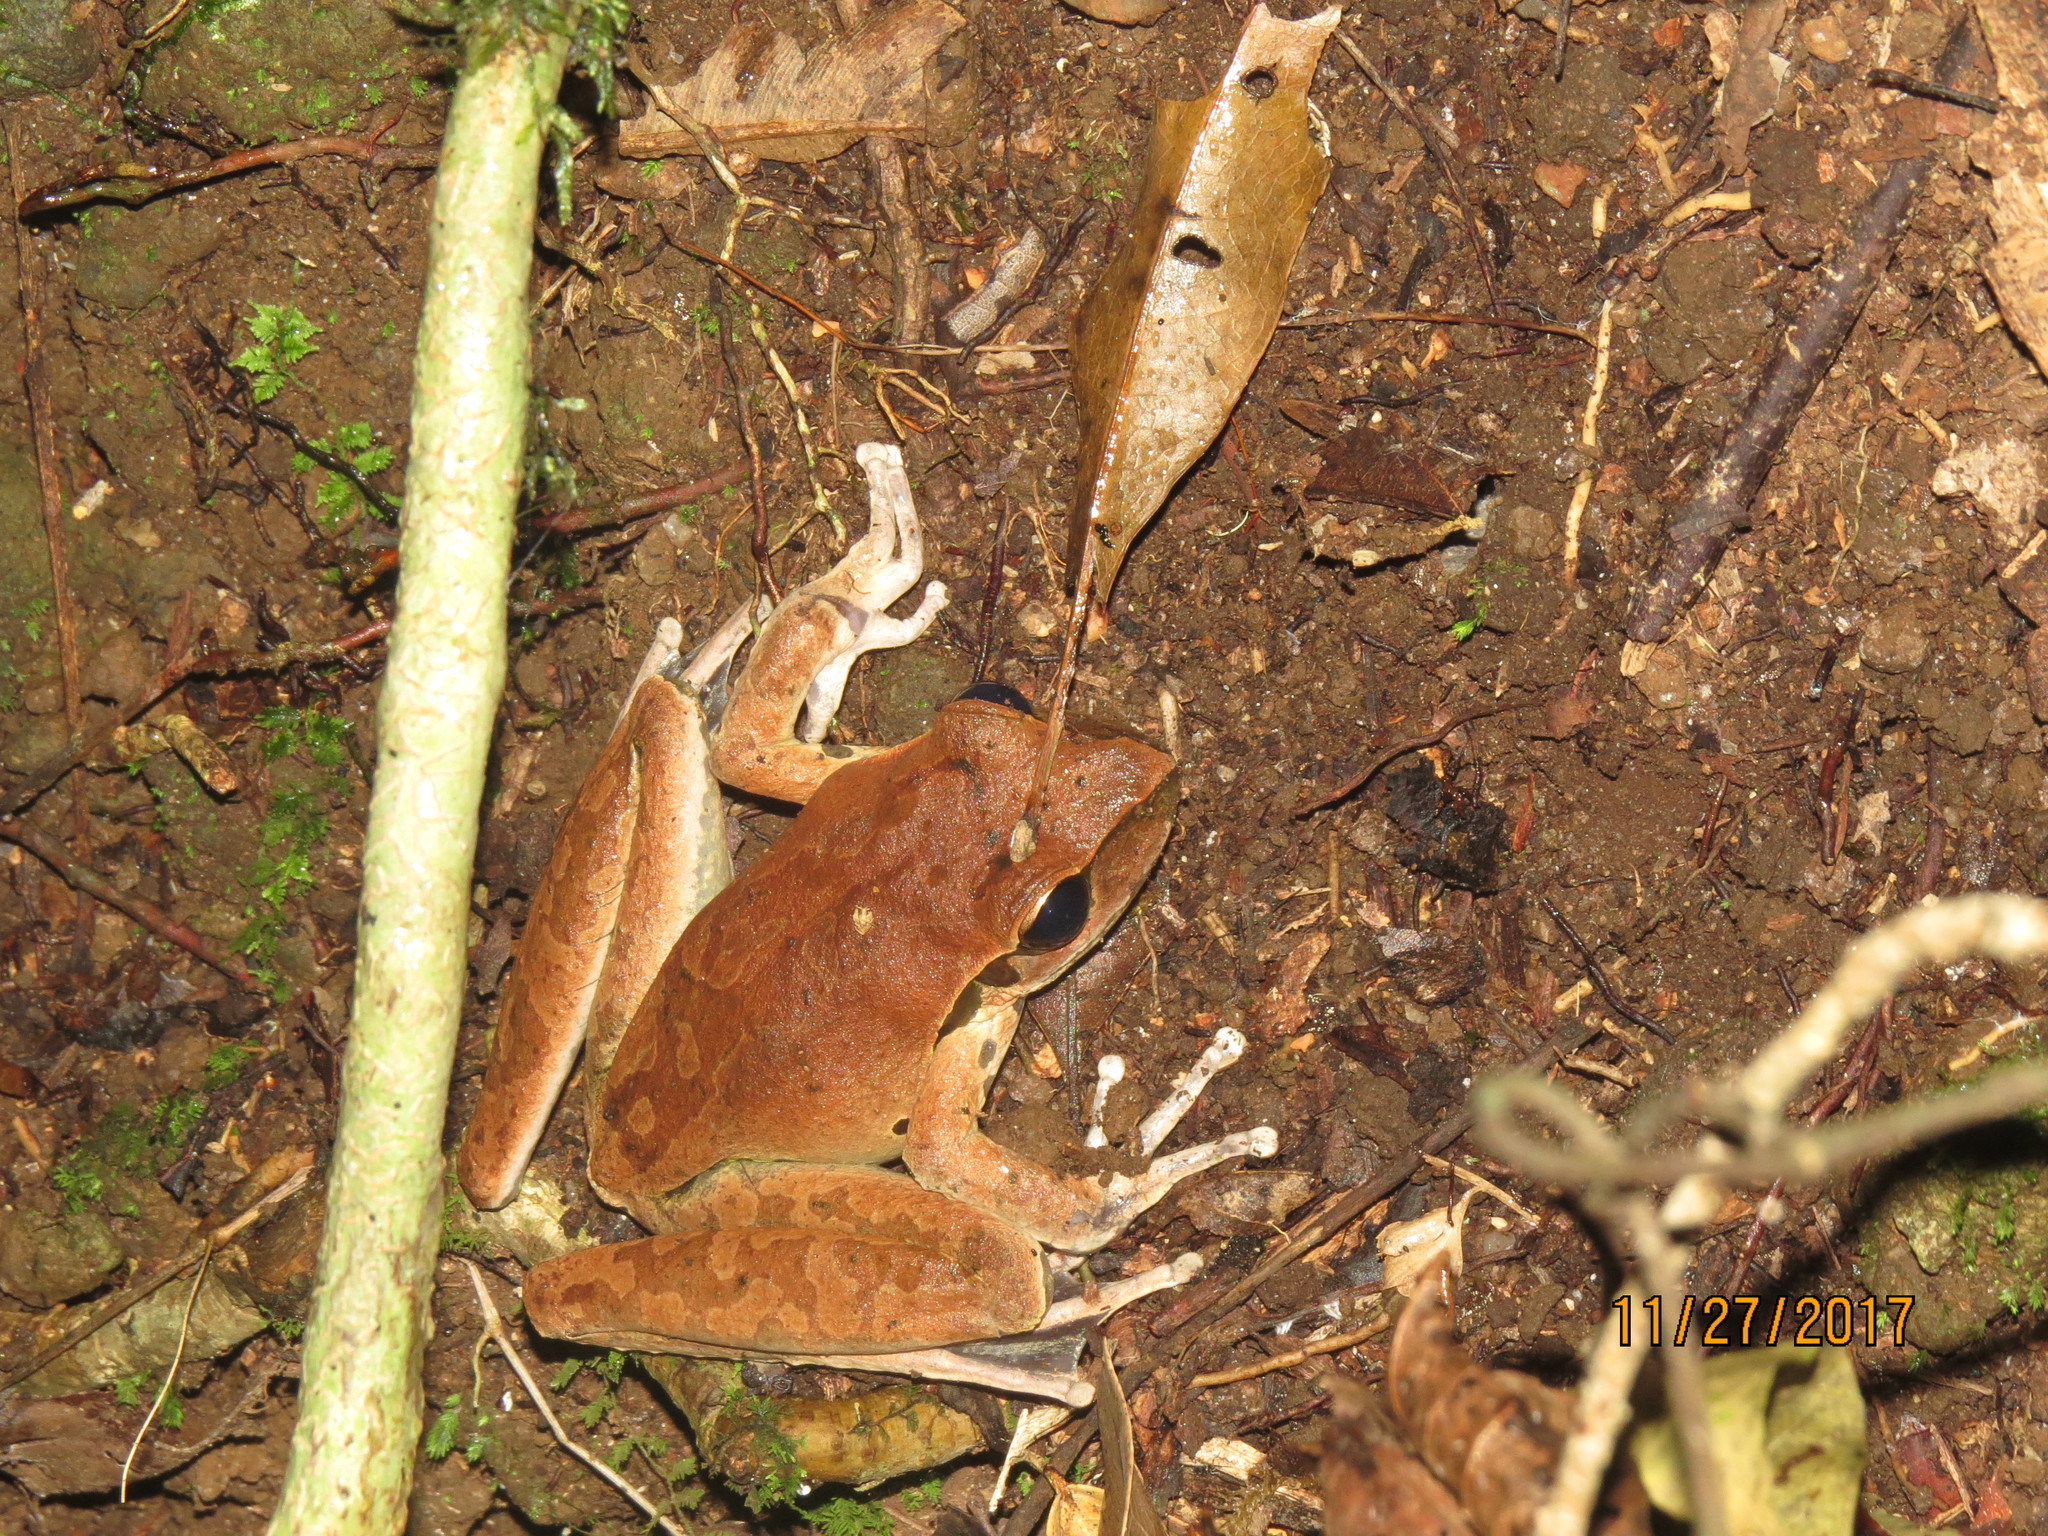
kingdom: Animalia
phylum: Chordata
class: Amphibia
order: Anura
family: Hylidae
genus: Ranoidea
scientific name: Ranoidea
